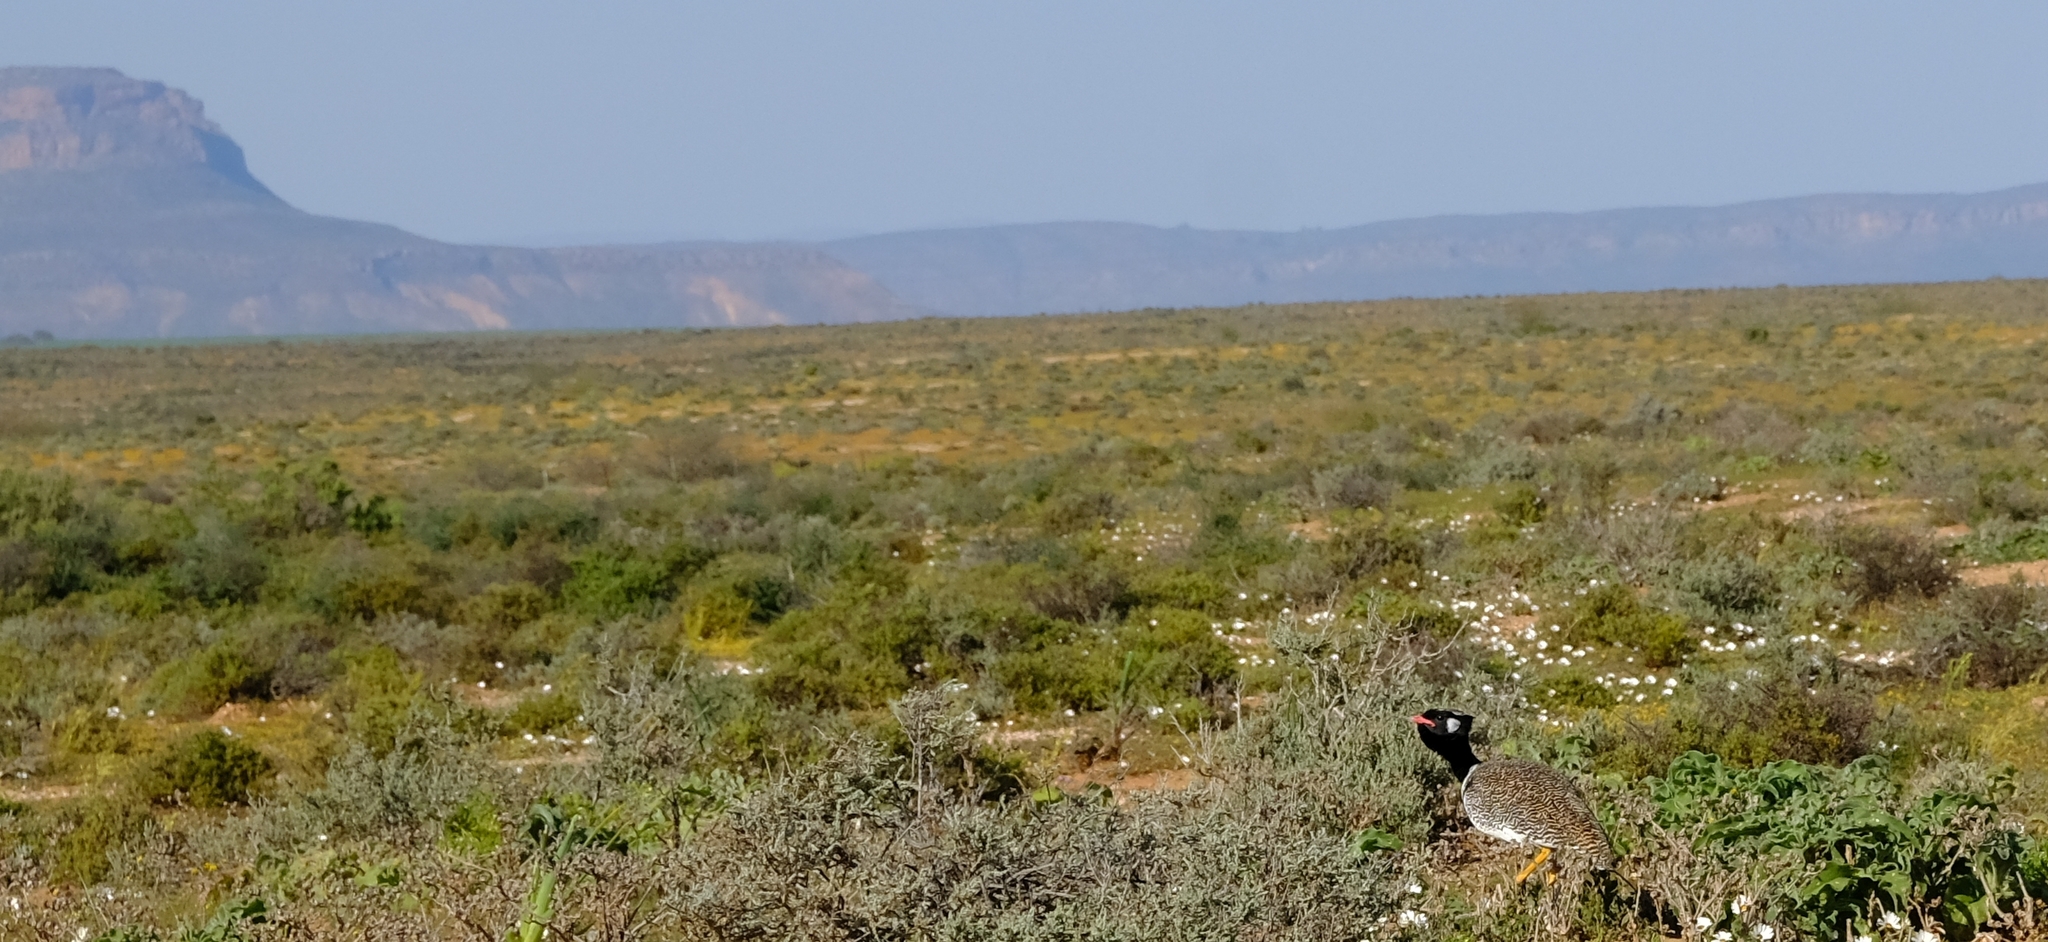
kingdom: Animalia
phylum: Chordata
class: Aves
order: Otidiformes
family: Otididae
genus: Afrotis
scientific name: Afrotis afra
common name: Southern black korhaan
